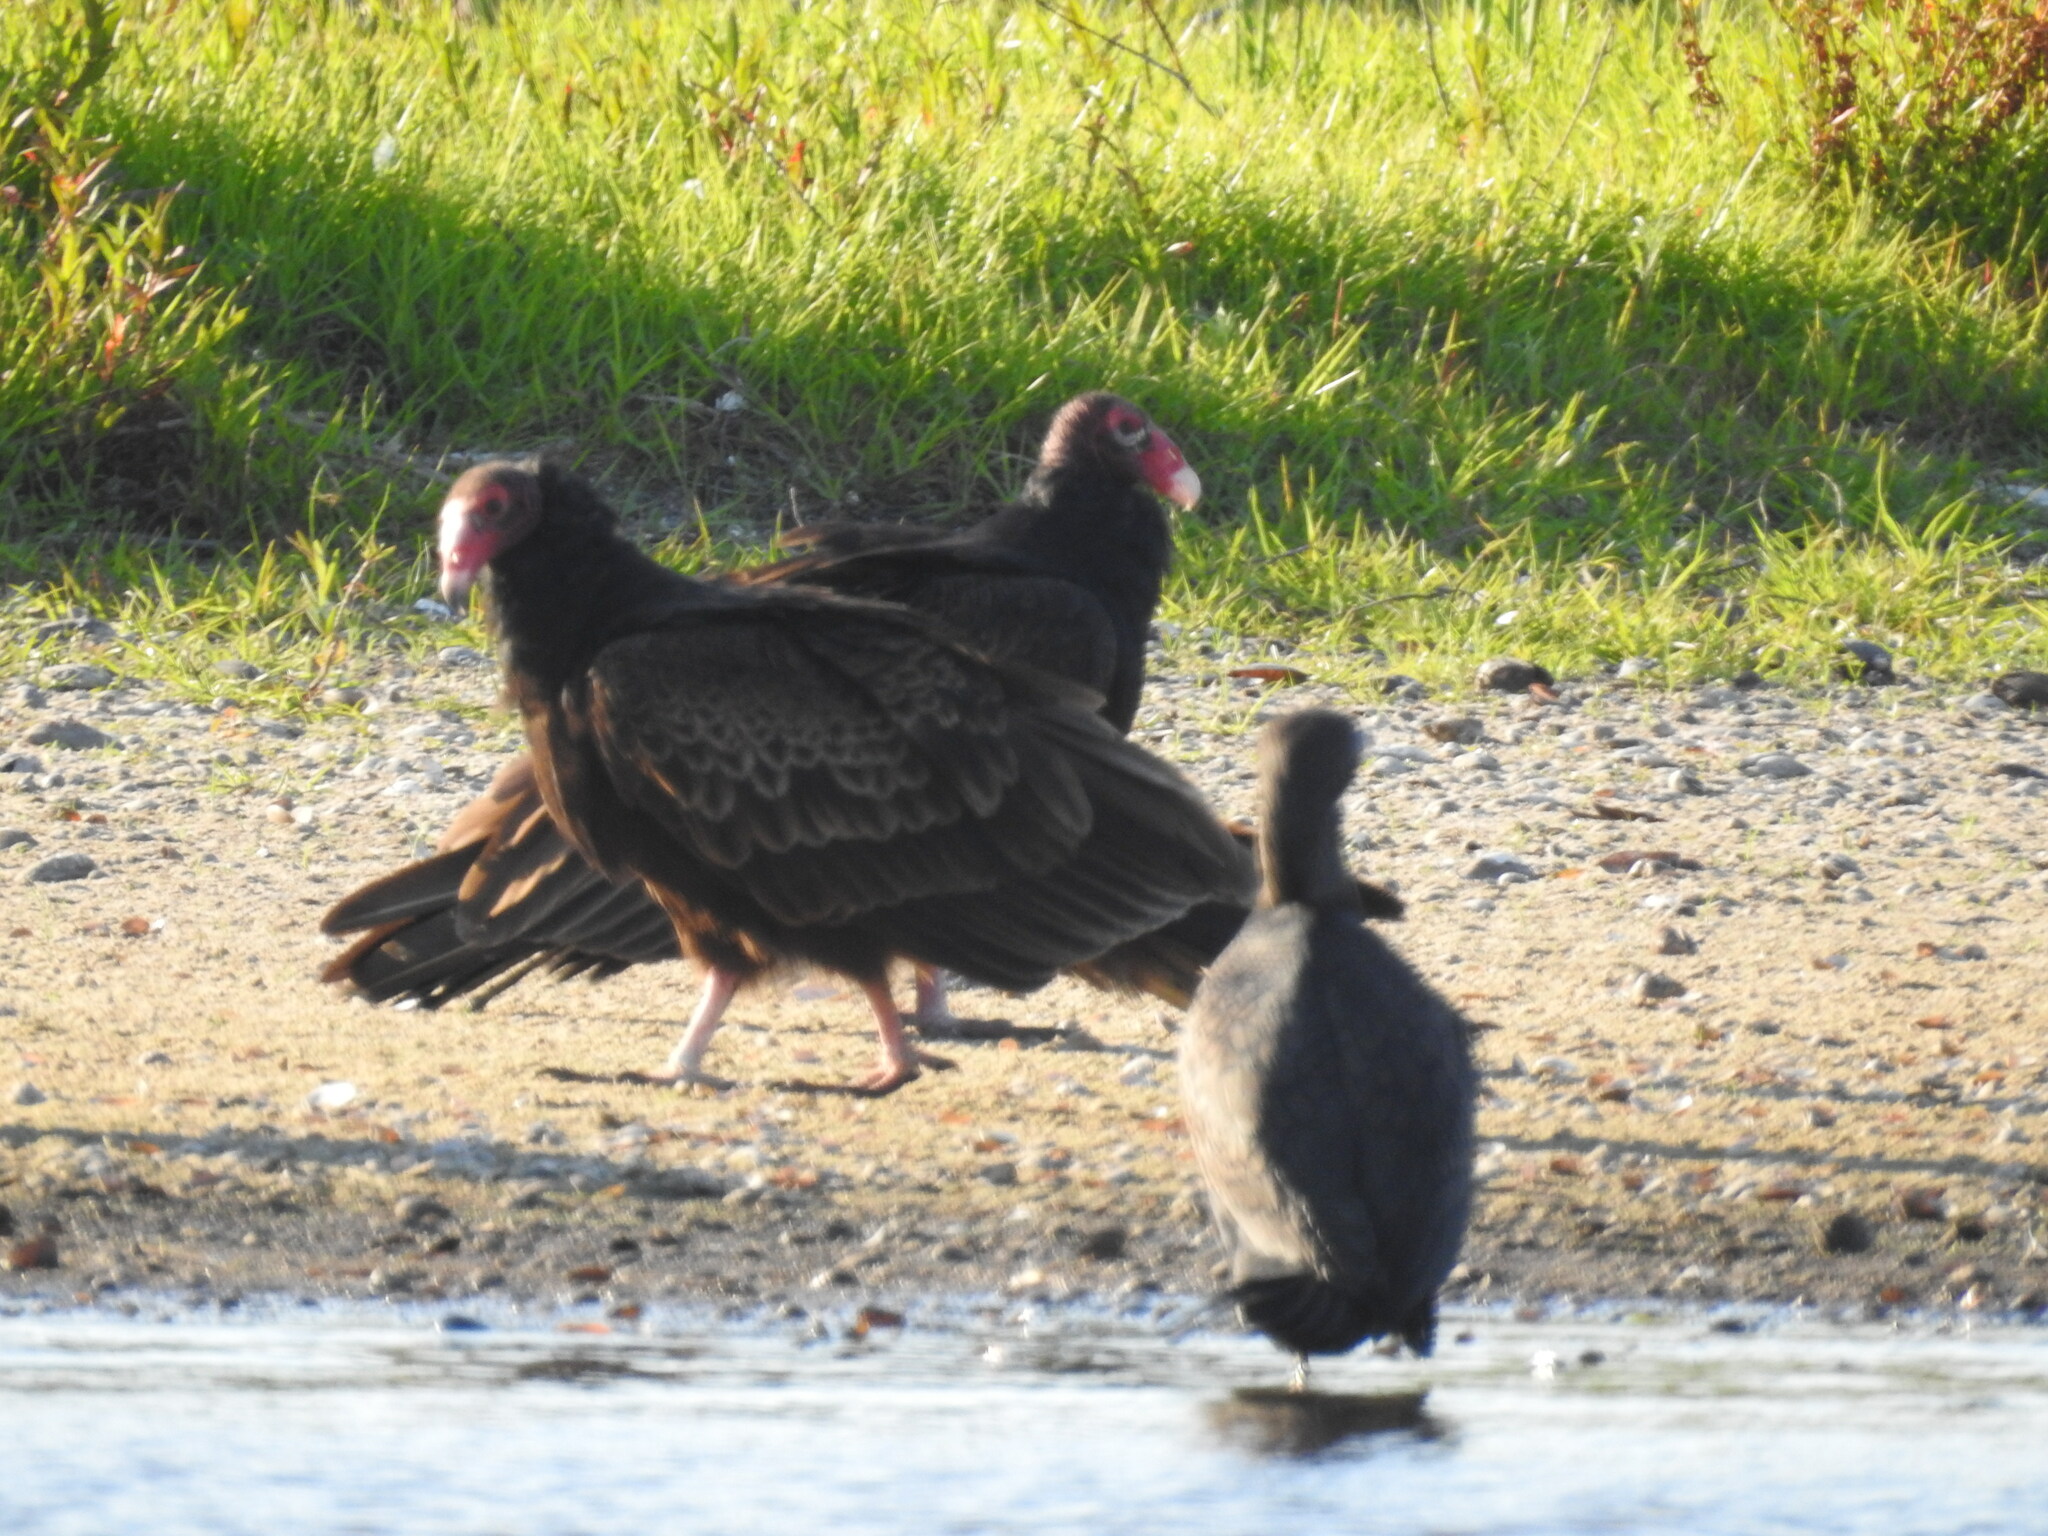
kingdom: Animalia
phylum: Chordata
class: Aves
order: Accipitriformes
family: Cathartidae
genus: Cathartes
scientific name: Cathartes aura
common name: Turkey vulture
